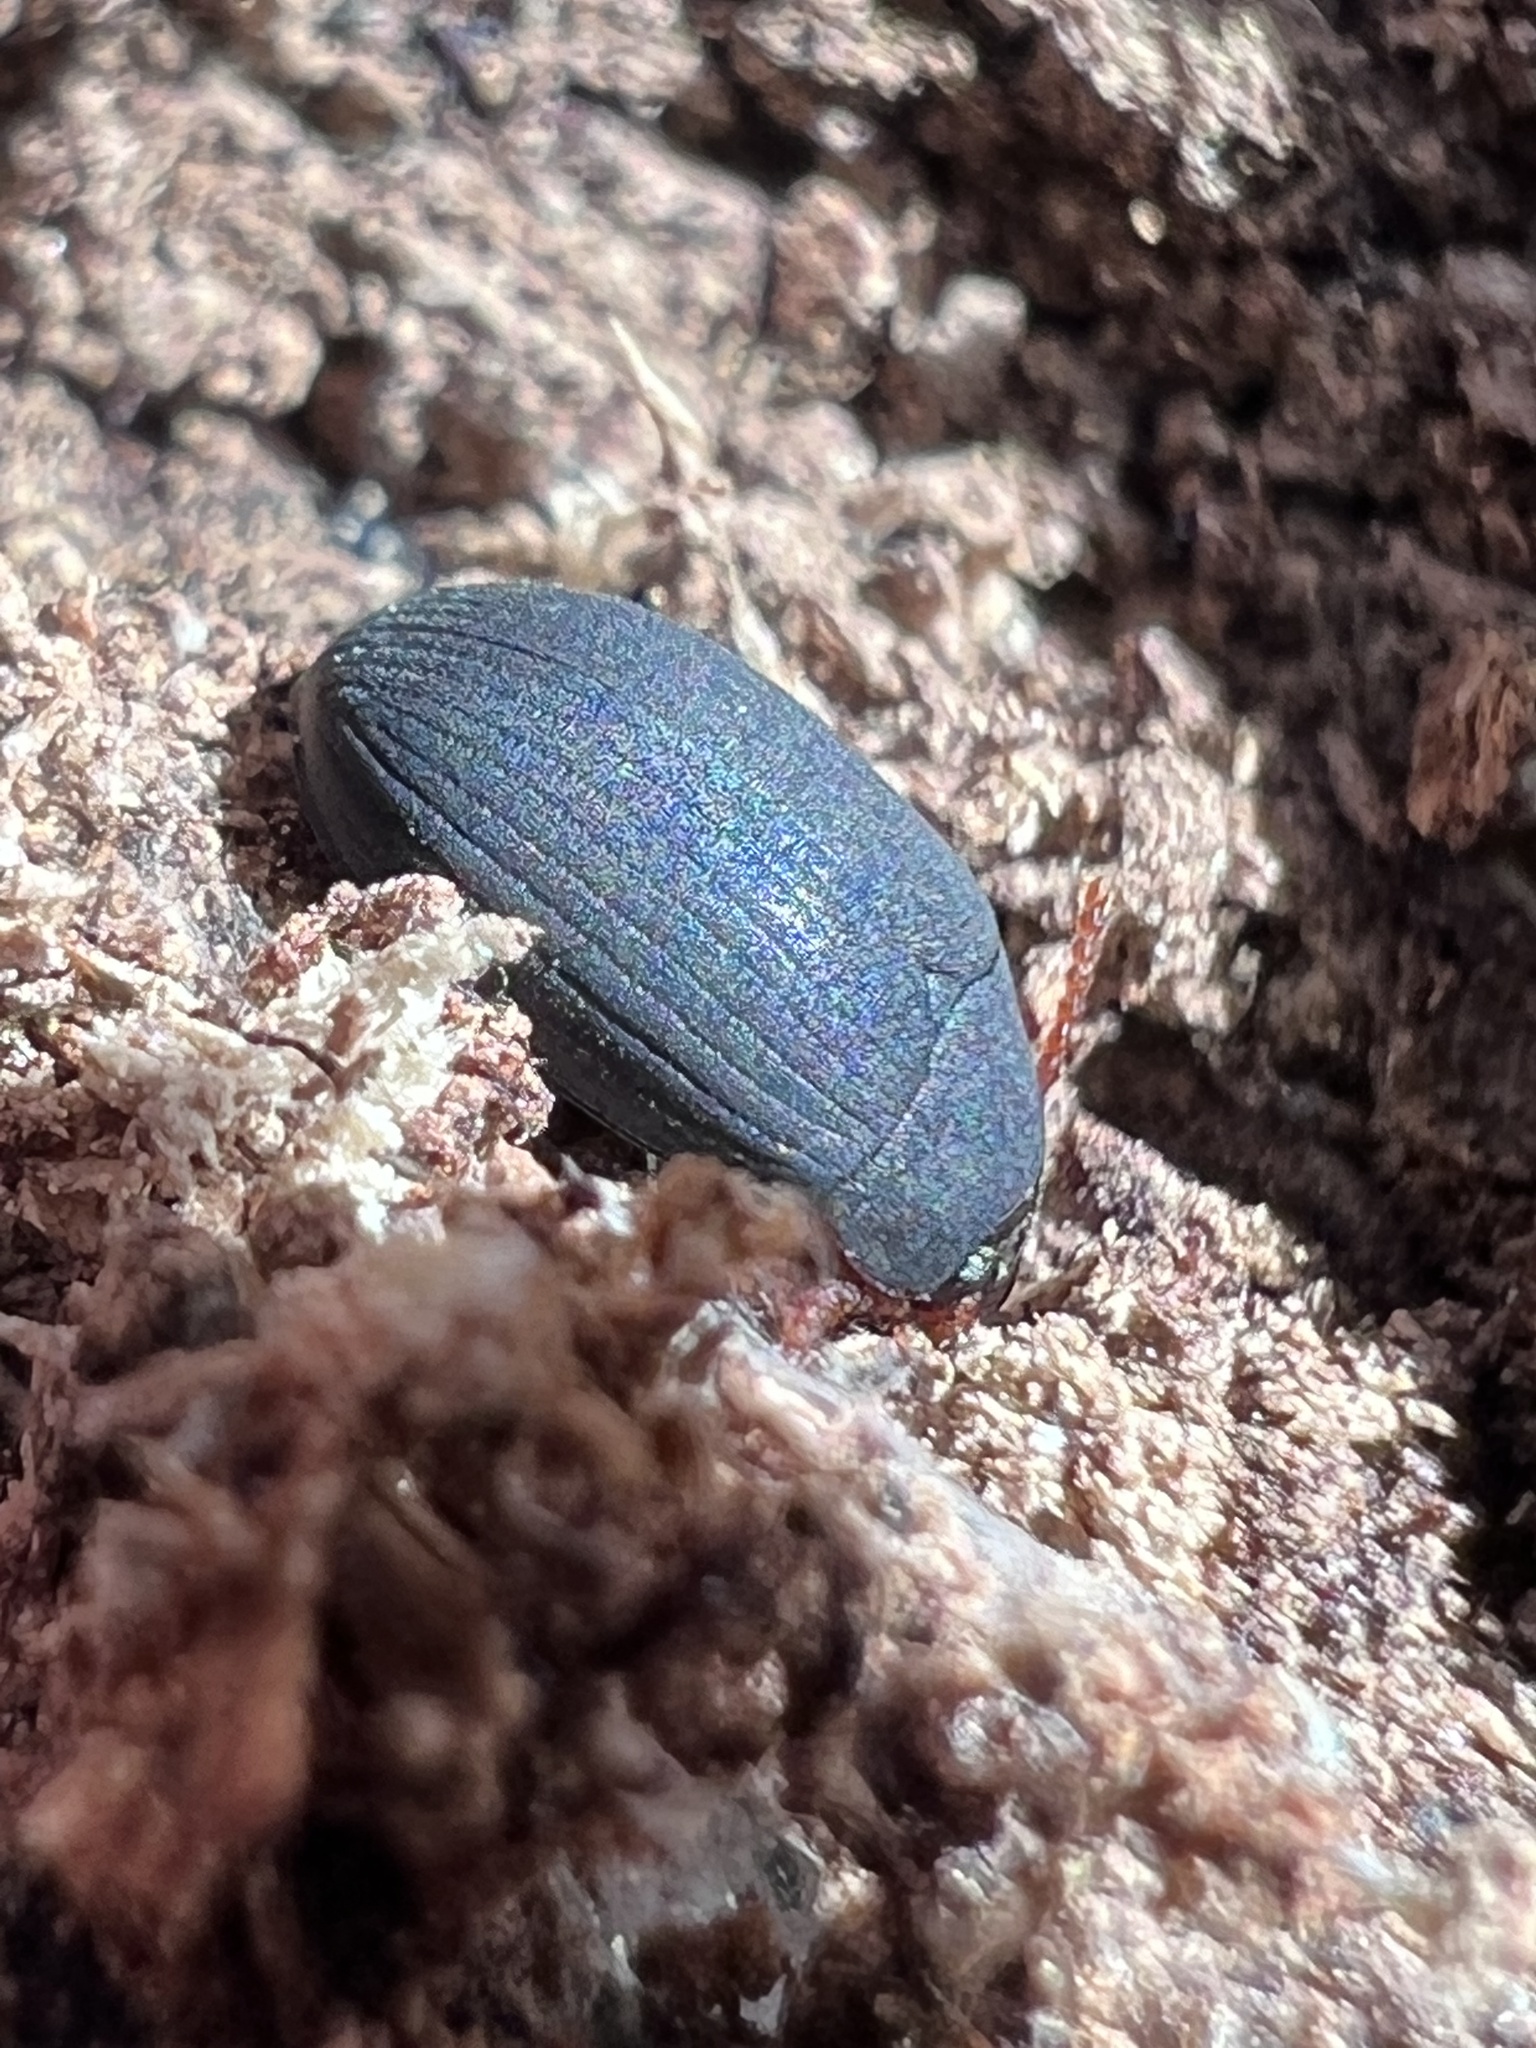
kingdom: Animalia
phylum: Arthropoda
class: Insecta
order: Coleoptera
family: Tenebrionidae
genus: Platydema
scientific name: Platydema ruficornis
